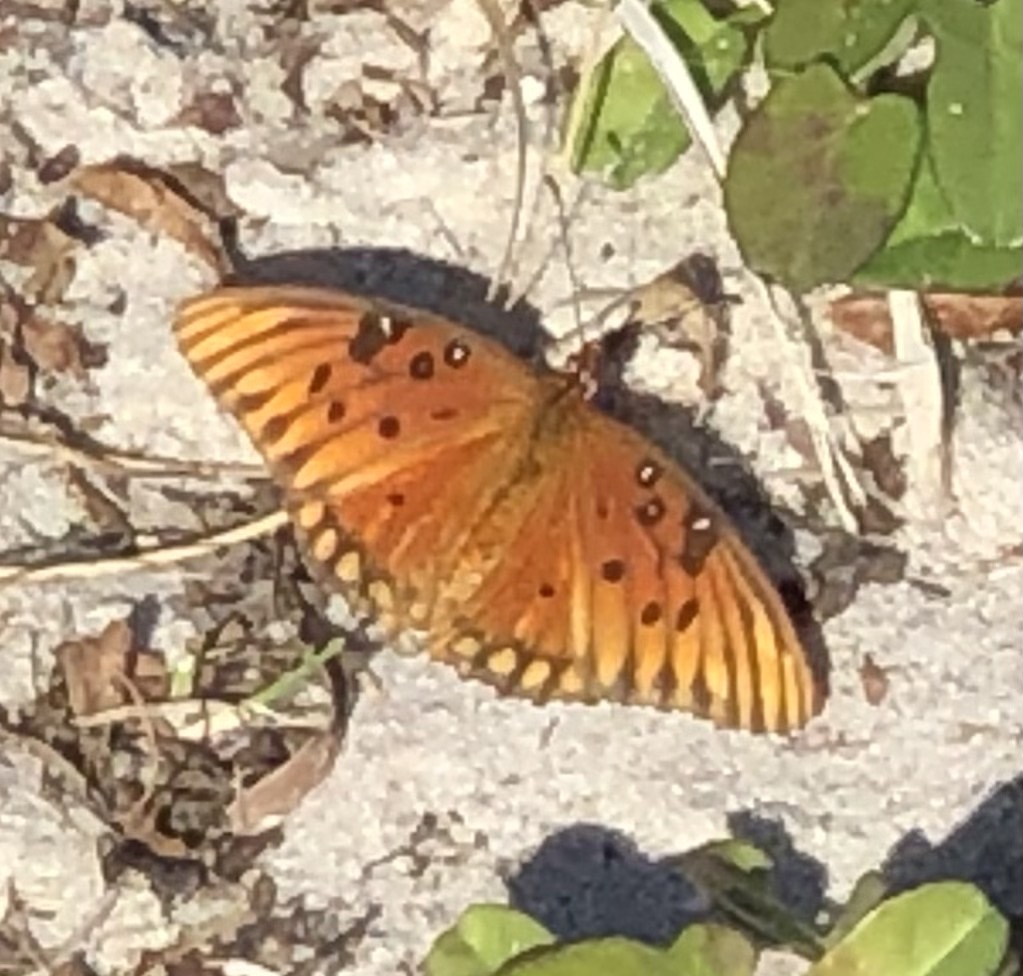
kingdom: Animalia
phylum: Arthropoda
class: Insecta
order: Lepidoptera
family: Nymphalidae
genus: Dione
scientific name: Dione vanillae
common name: Gulf fritillary
